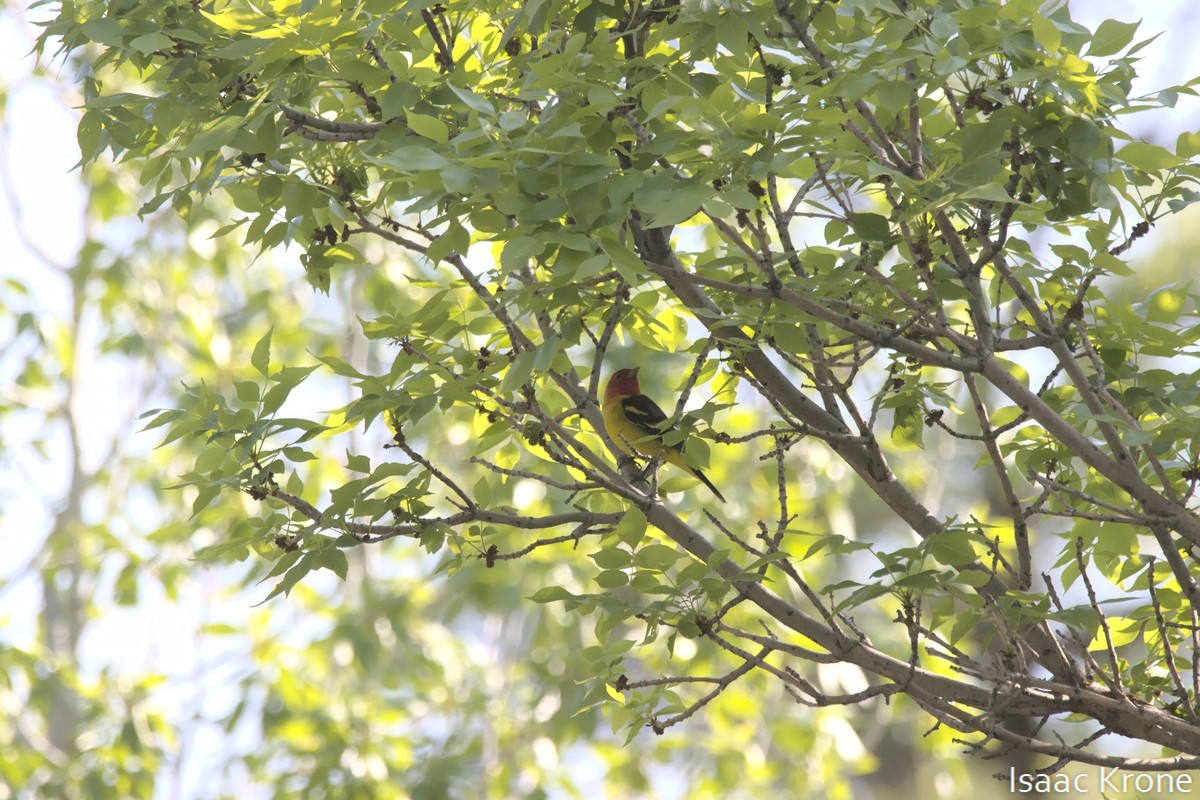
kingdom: Animalia
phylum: Chordata
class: Aves
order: Passeriformes
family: Cardinalidae
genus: Piranga
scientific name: Piranga ludoviciana
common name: Western tanager
